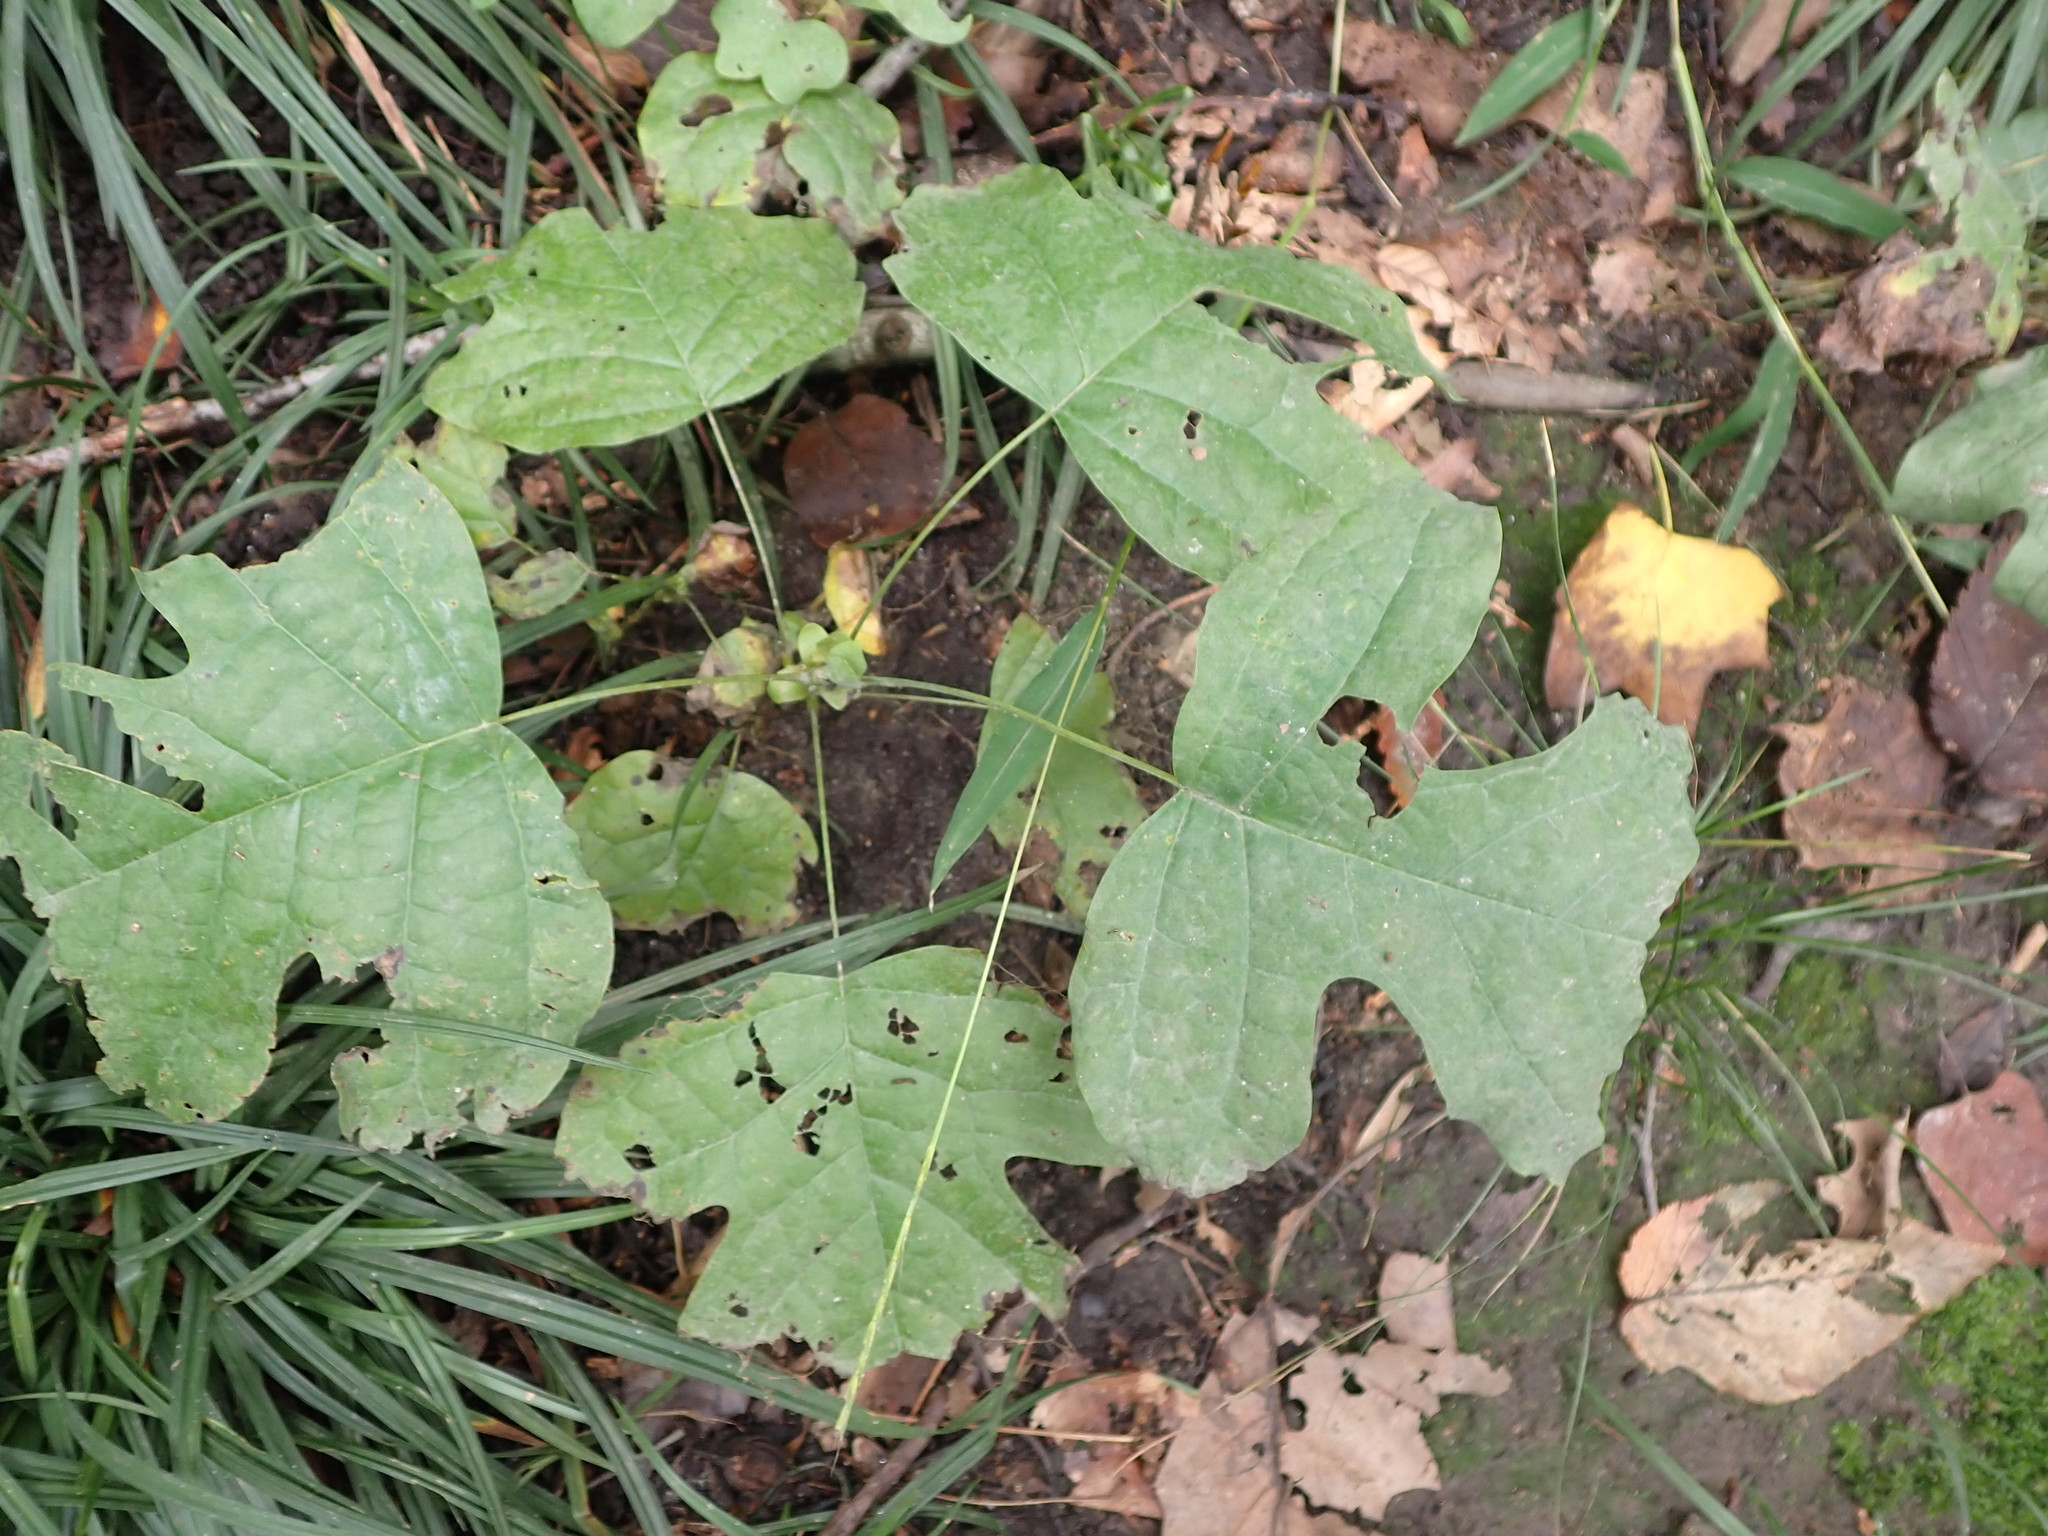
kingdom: Plantae
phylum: Tracheophyta
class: Magnoliopsida
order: Magnoliales
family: Magnoliaceae
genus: Liriodendron
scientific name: Liriodendron tulipifera
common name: Tulip tree
